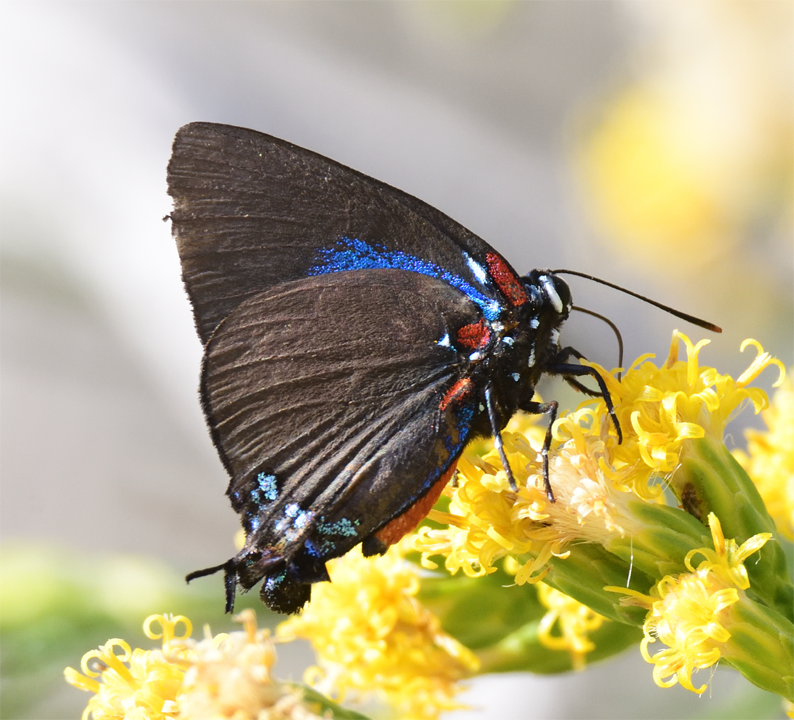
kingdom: Animalia
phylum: Arthropoda
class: Insecta
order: Lepidoptera
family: Lycaenidae
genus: Atlides
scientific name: Atlides halesus
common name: Great purple hairstreak
